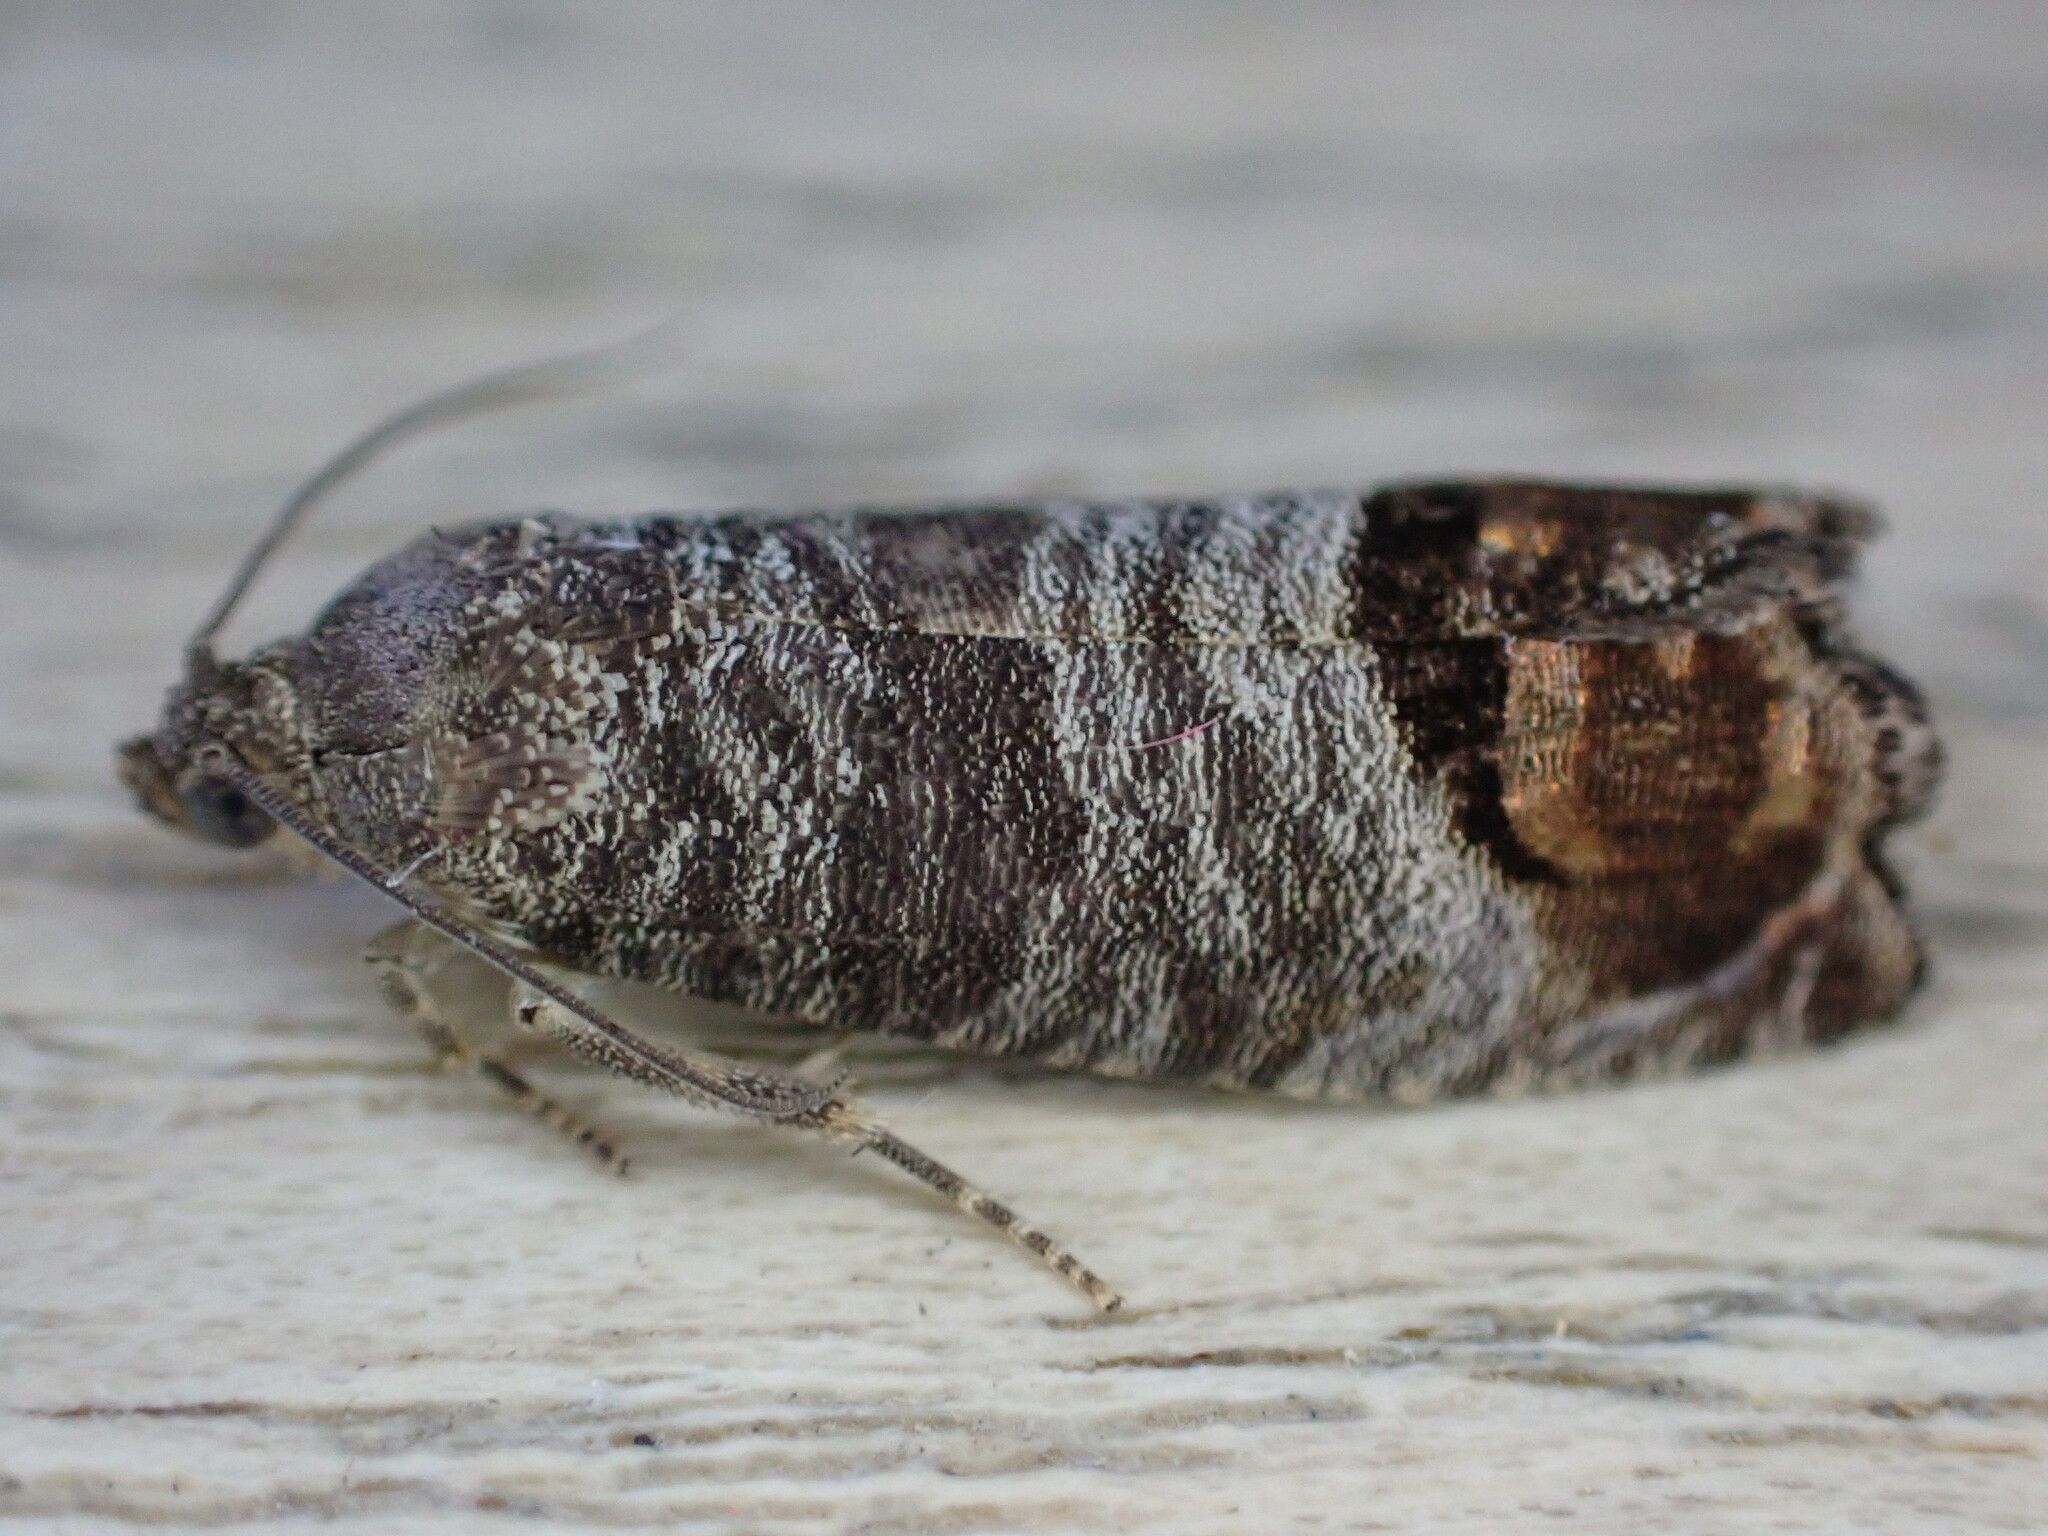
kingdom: Animalia
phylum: Arthropoda
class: Insecta
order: Lepidoptera
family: Tortricidae
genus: Cydia
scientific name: Cydia pomonella
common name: Codling moth
